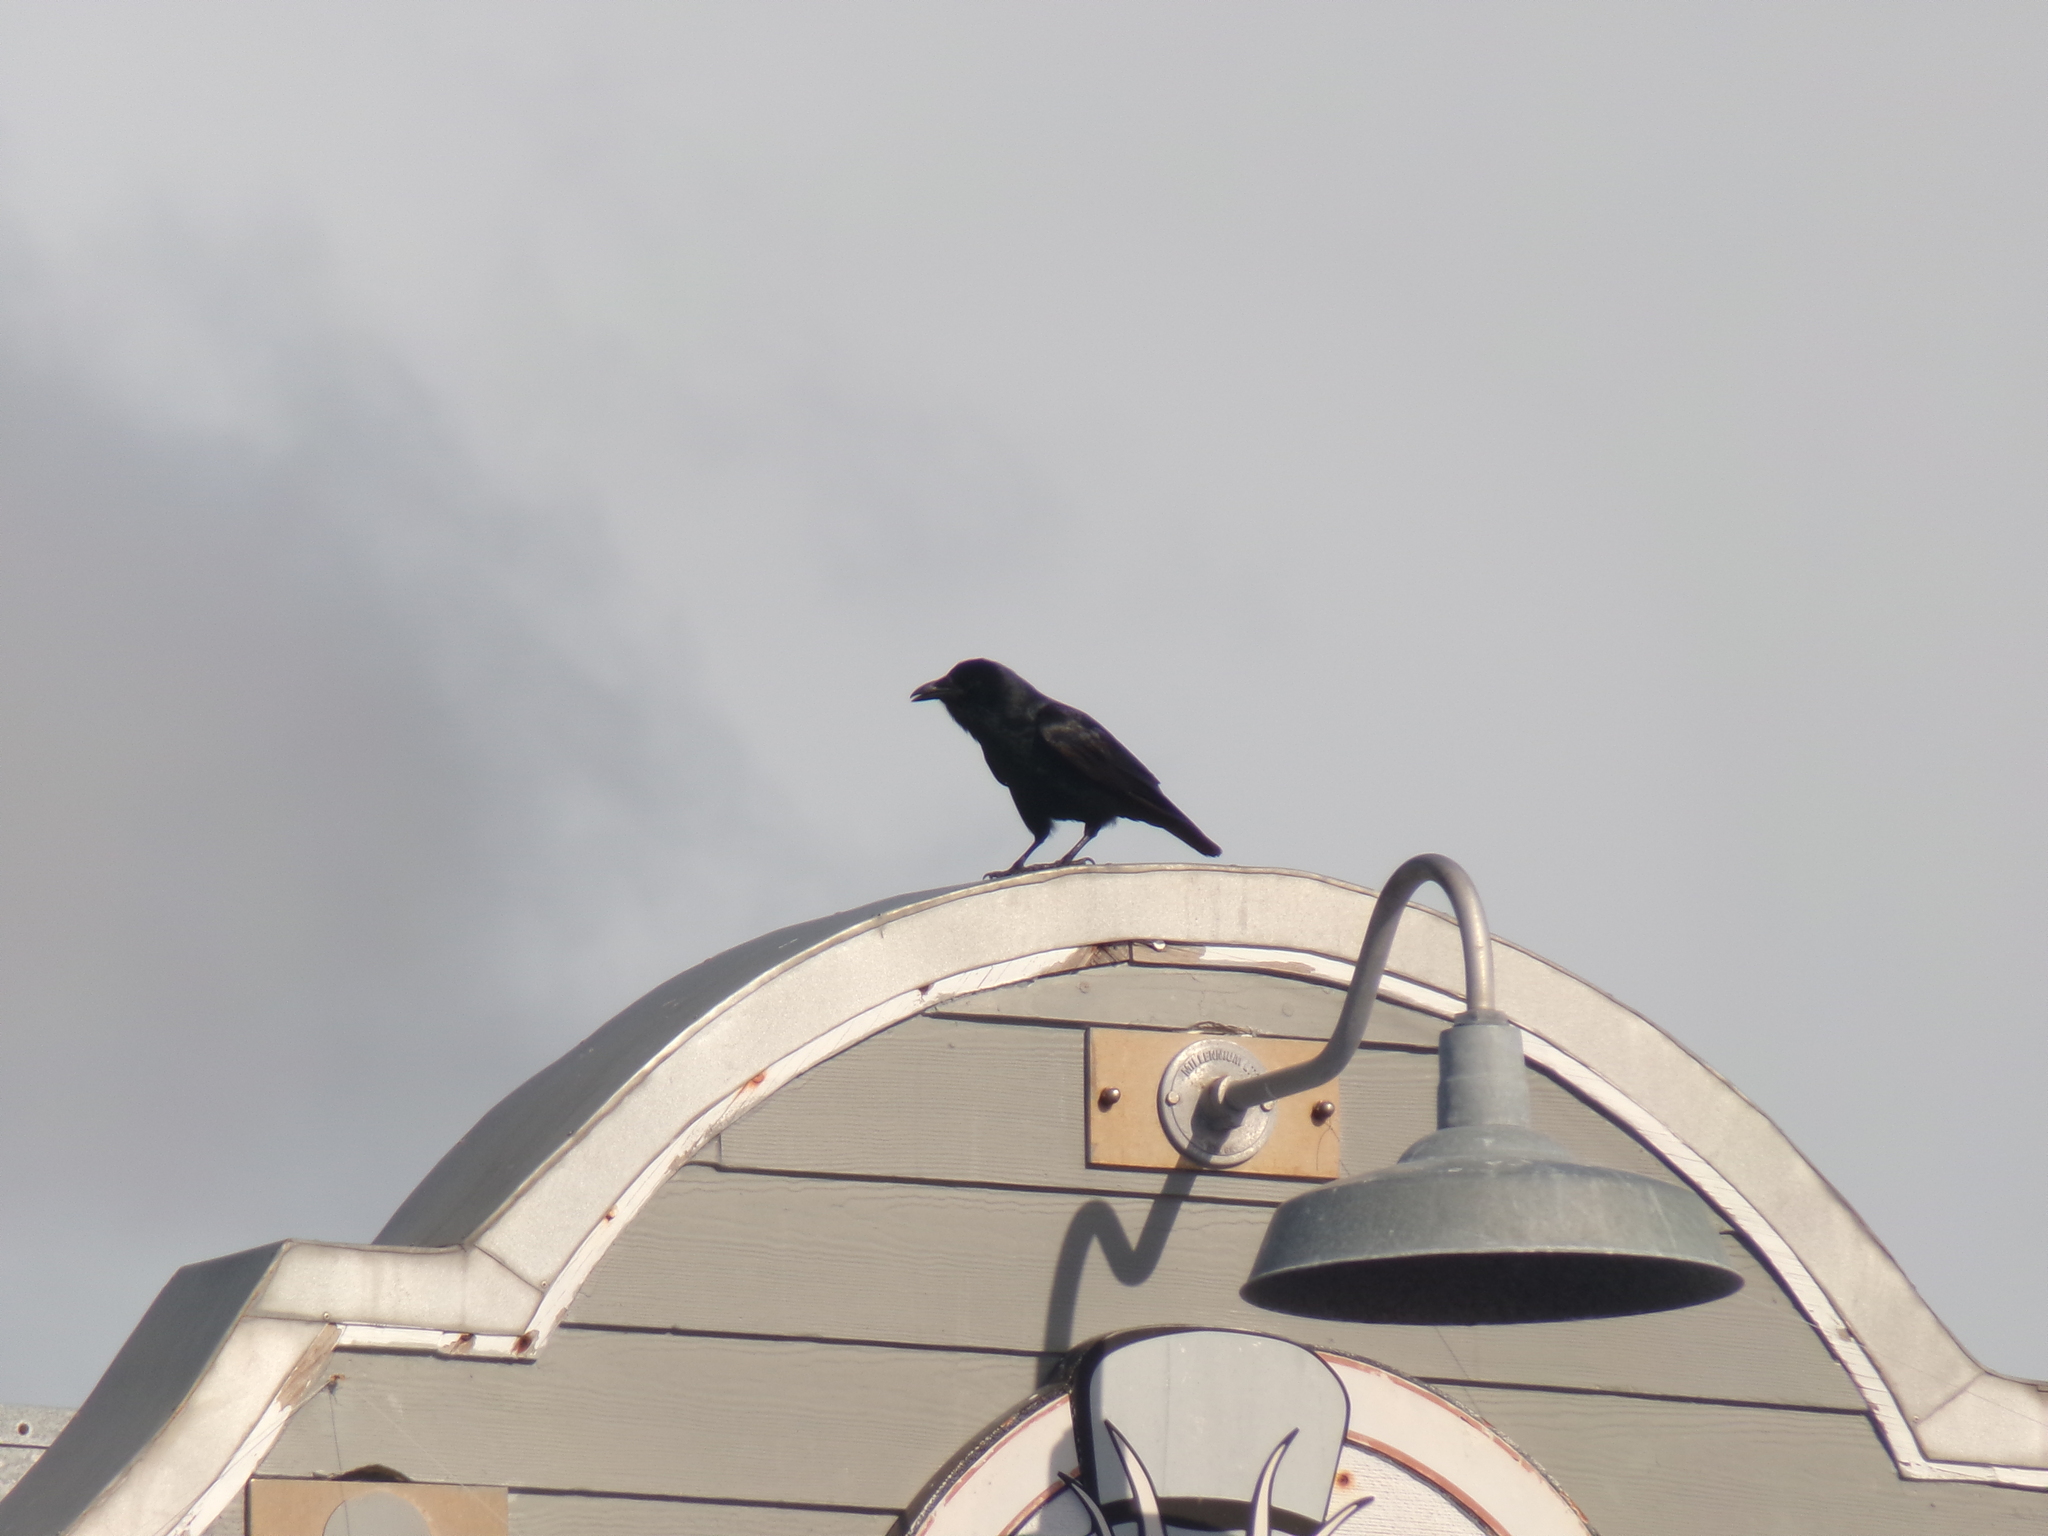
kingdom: Animalia
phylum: Chordata
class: Aves
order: Passeriformes
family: Corvidae
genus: Corvus
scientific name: Corvus ossifragus
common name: Fish crow
